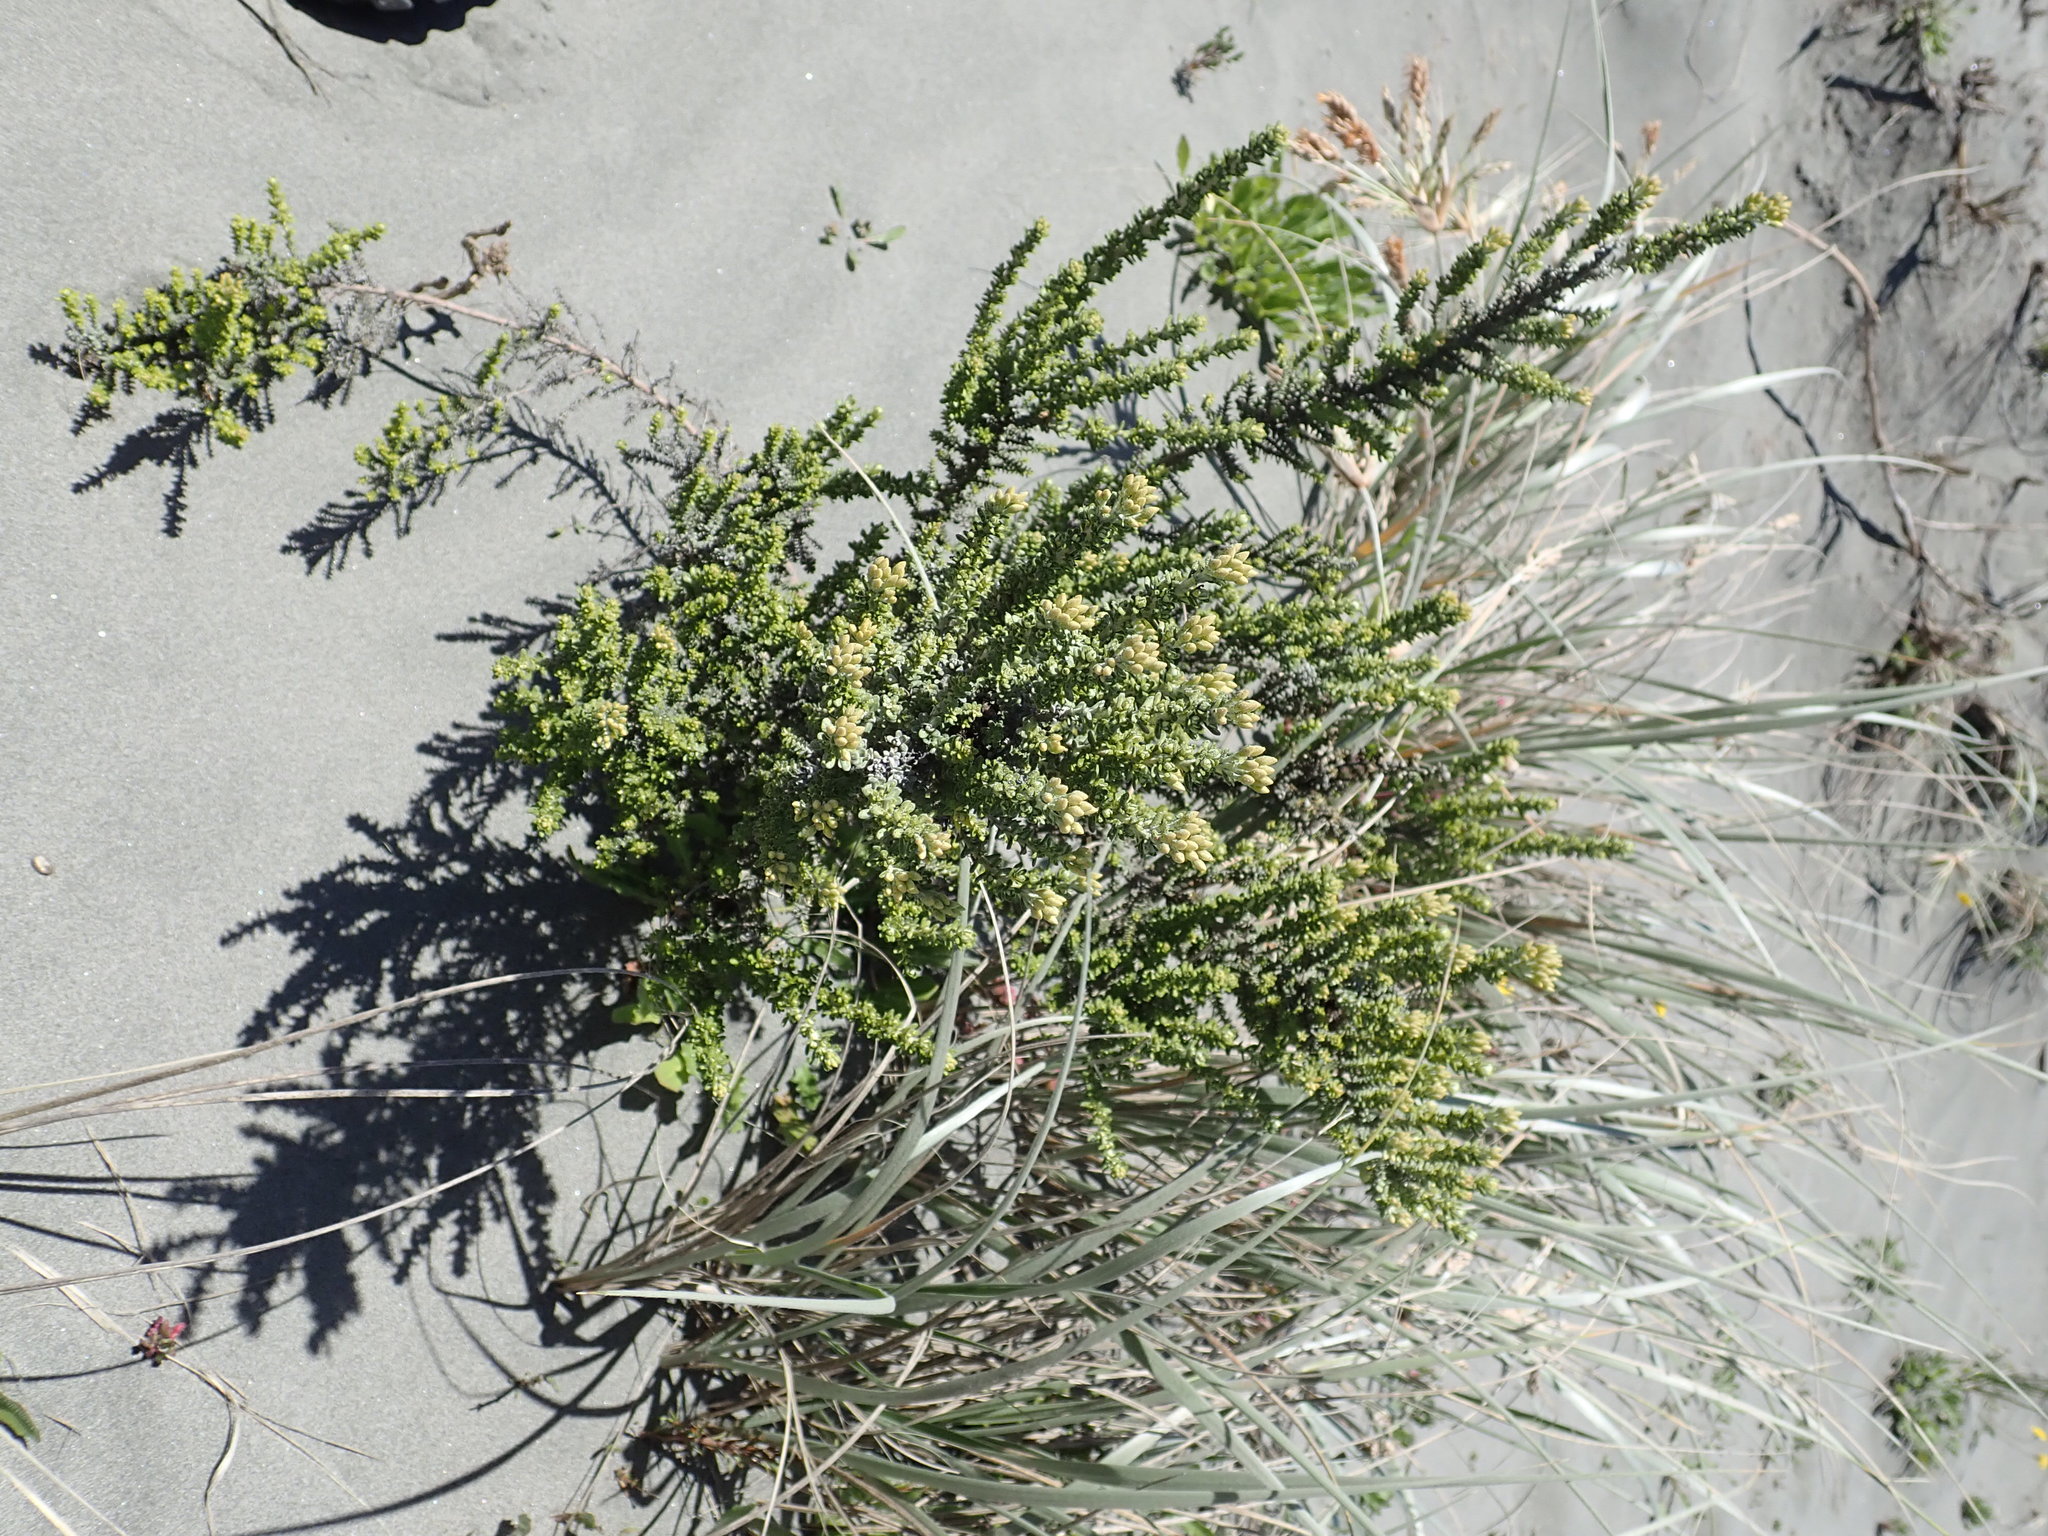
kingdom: Plantae
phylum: Tracheophyta
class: Magnoliopsida
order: Asterales
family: Asteraceae
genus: Ozothamnus
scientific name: Ozothamnus leptophyllus
